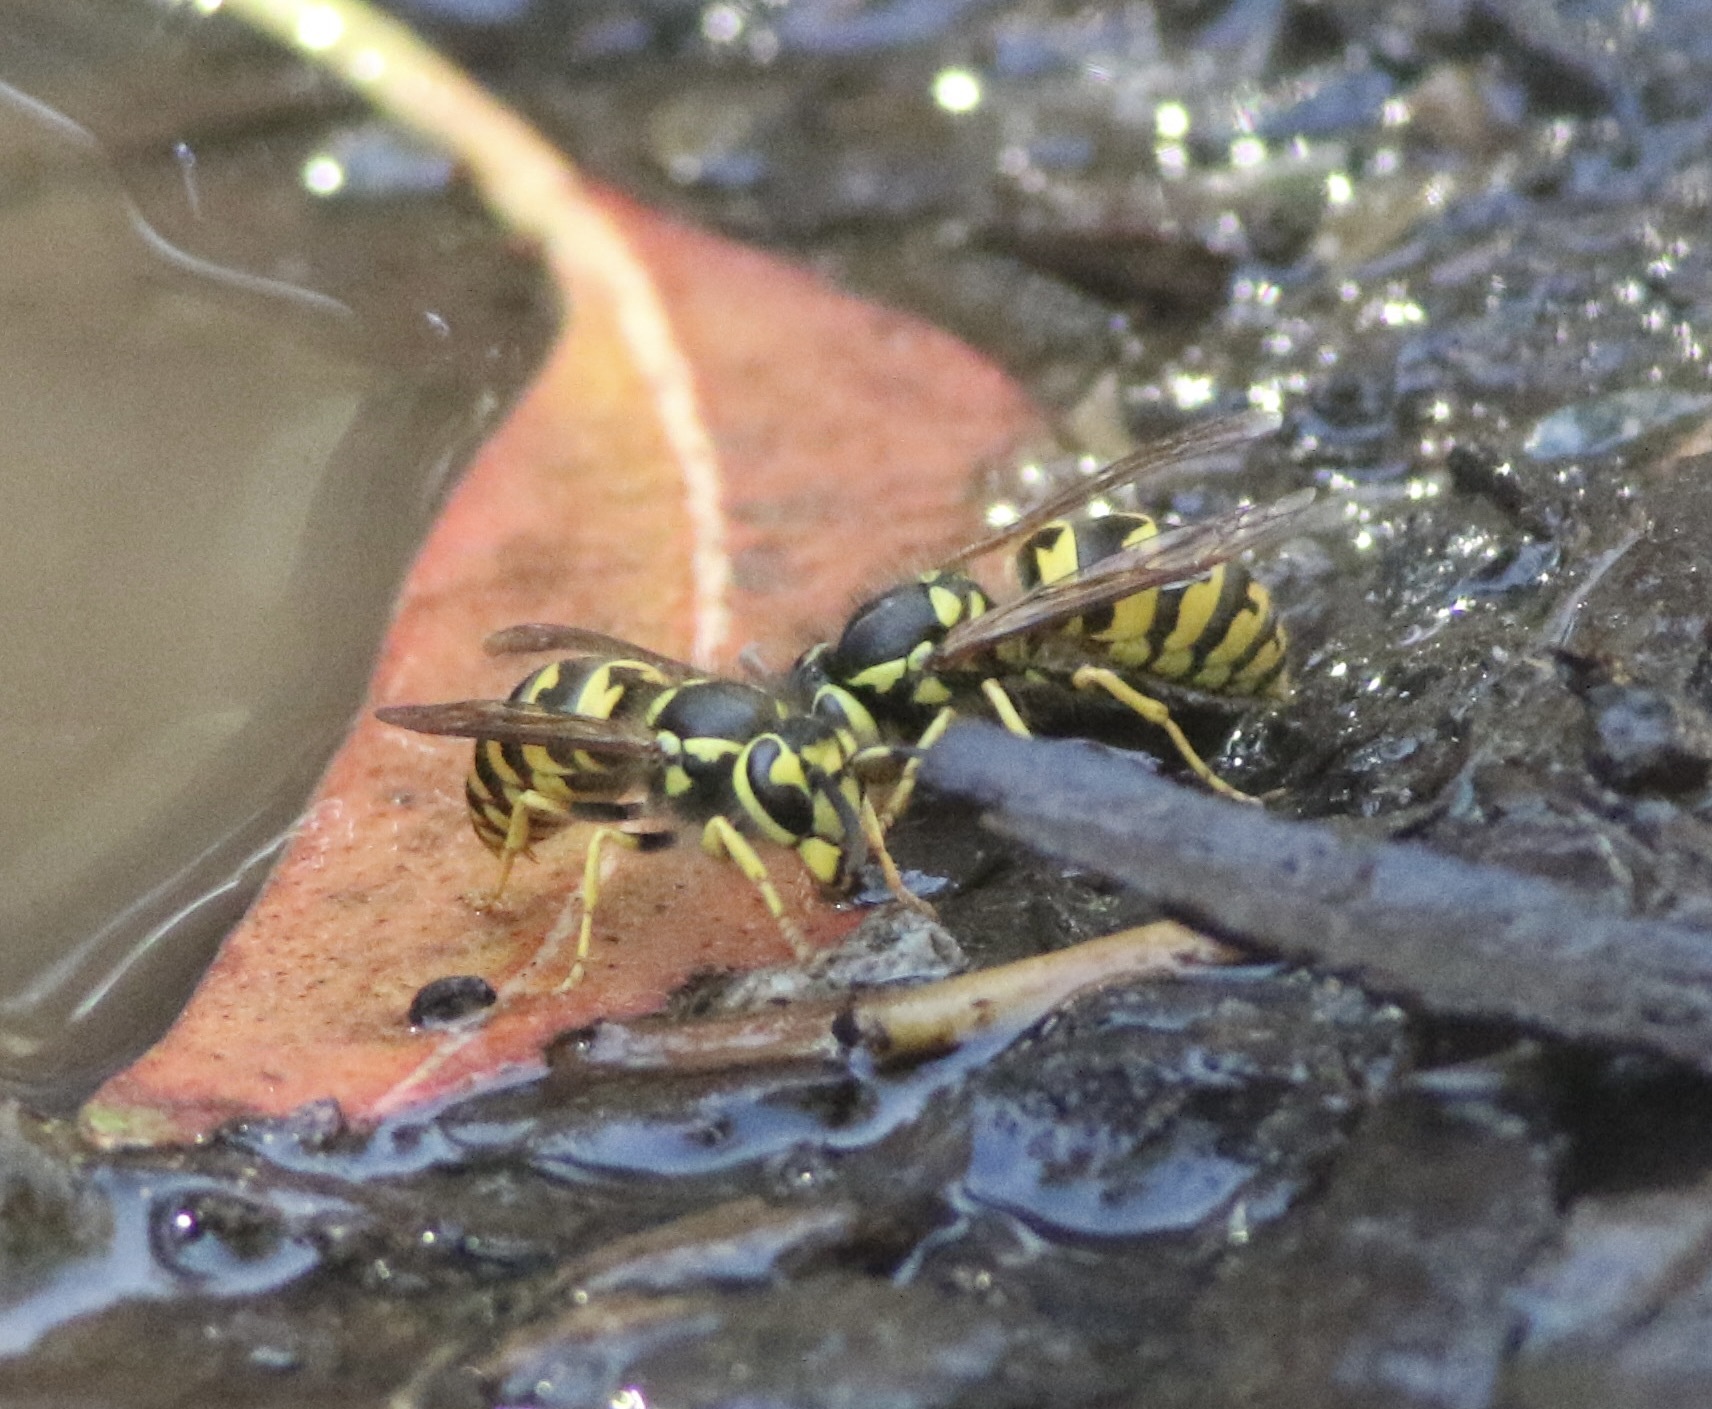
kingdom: Animalia
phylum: Arthropoda
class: Insecta
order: Hymenoptera
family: Vespidae
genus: Vespula
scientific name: Vespula pensylvanica
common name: Western yellowjacket
